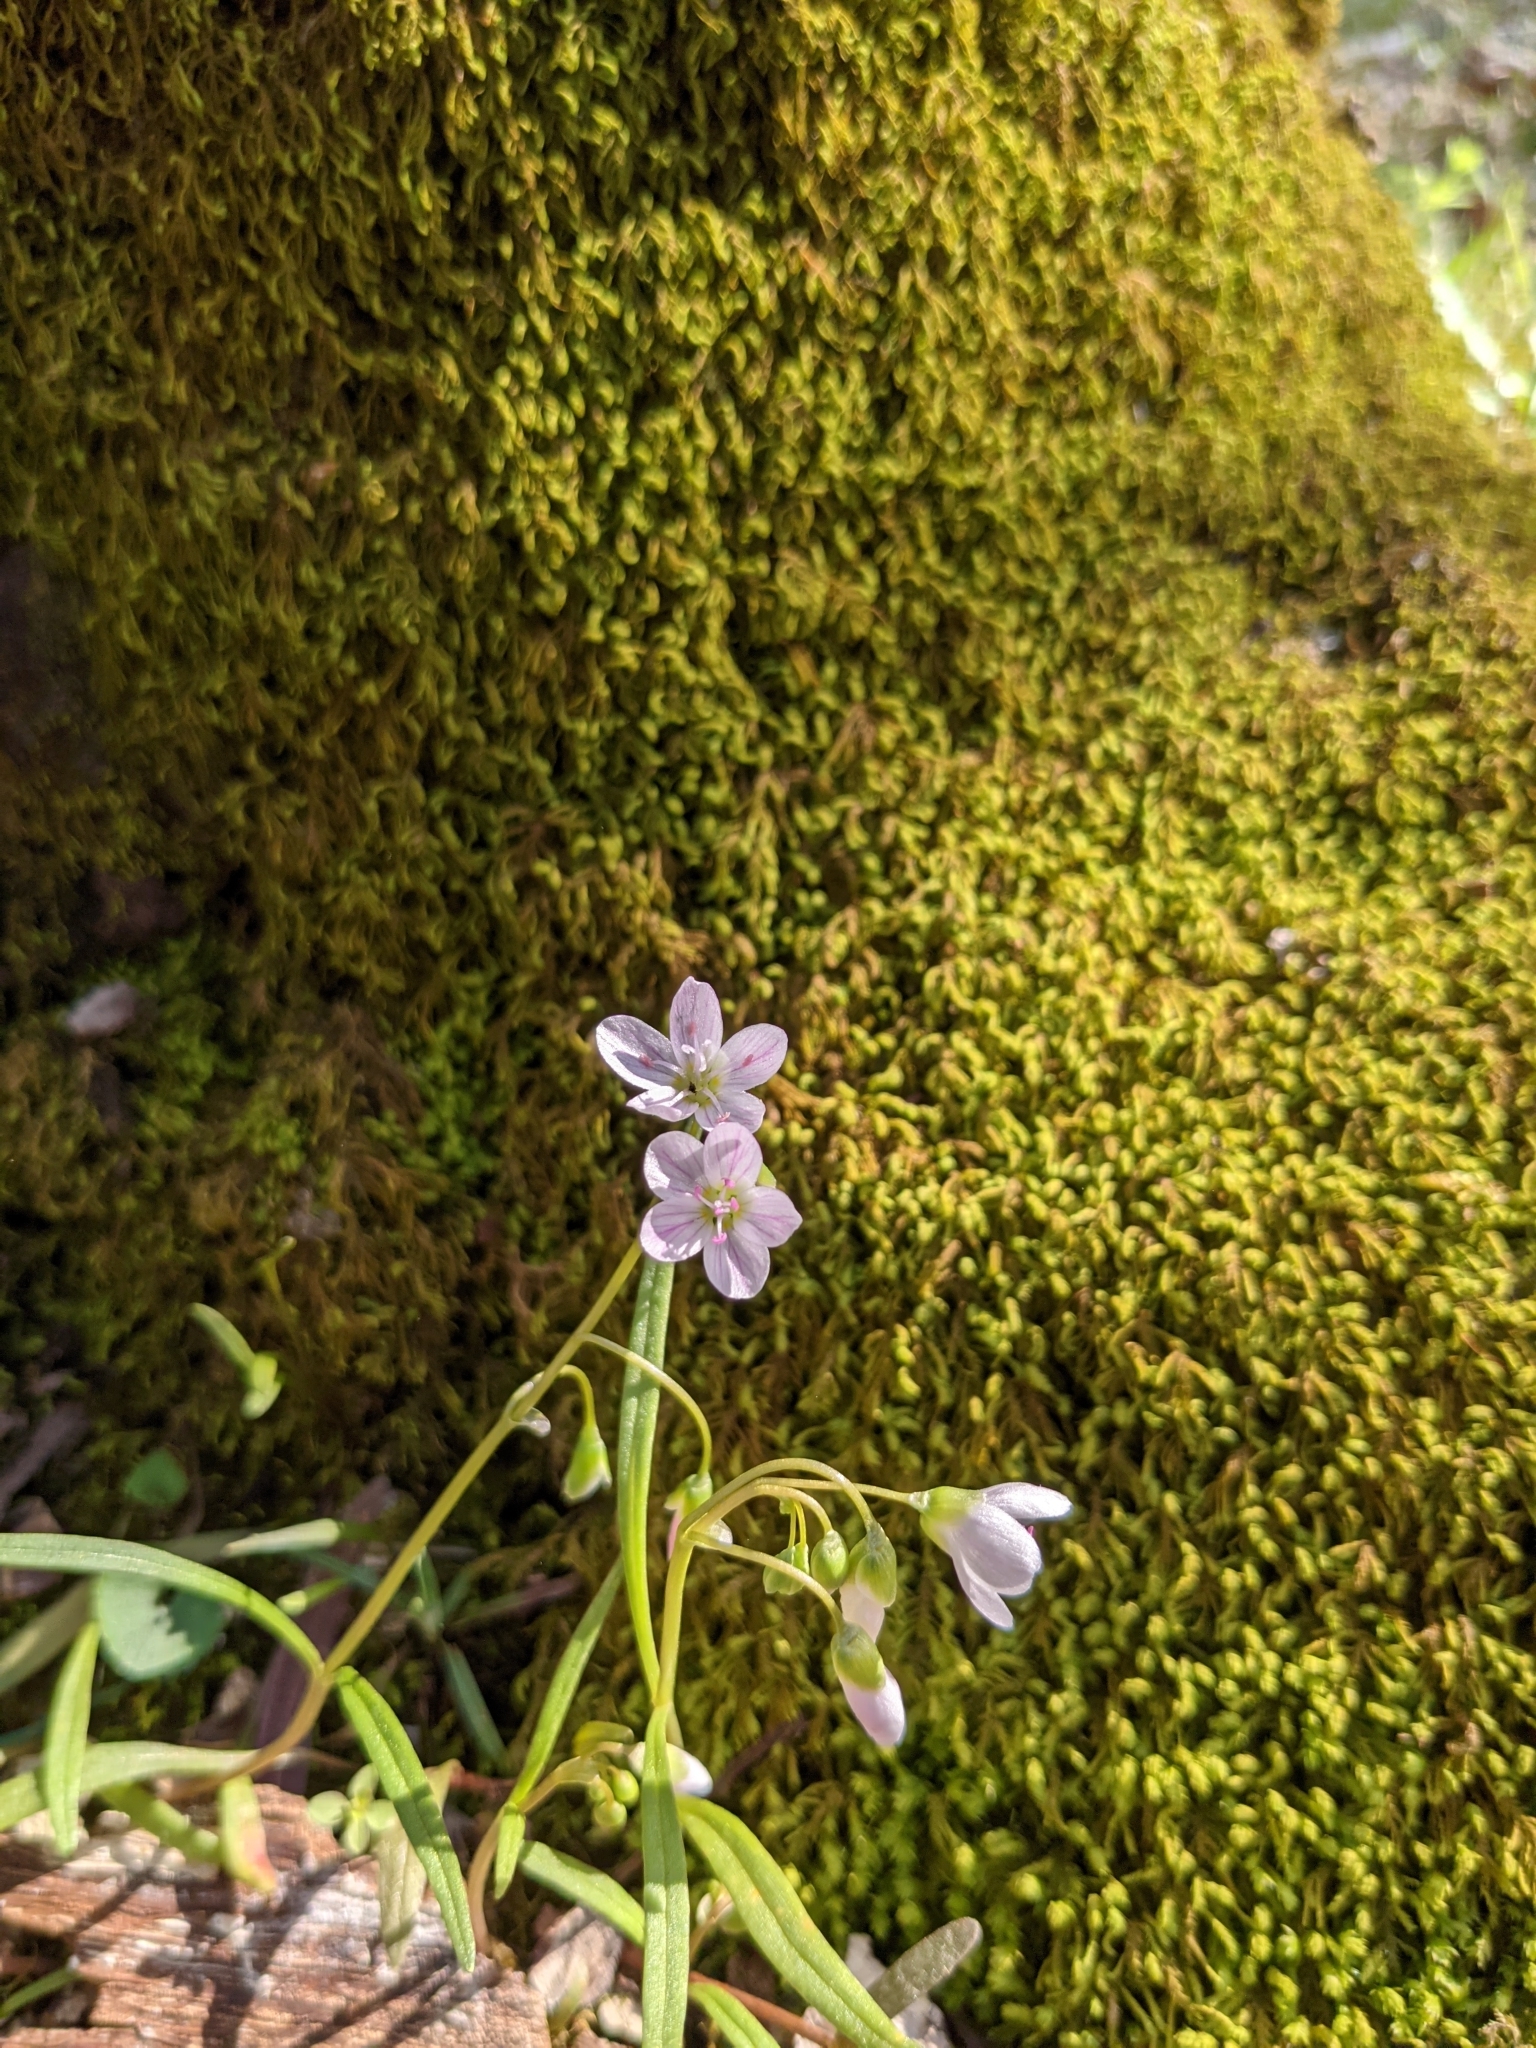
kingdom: Plantae
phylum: Tracheophyta
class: Magnoliopsida
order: Caryophyllales
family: Montiaceae
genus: Claytonia
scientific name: Claytonia virginica
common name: Virginia springbeauty
